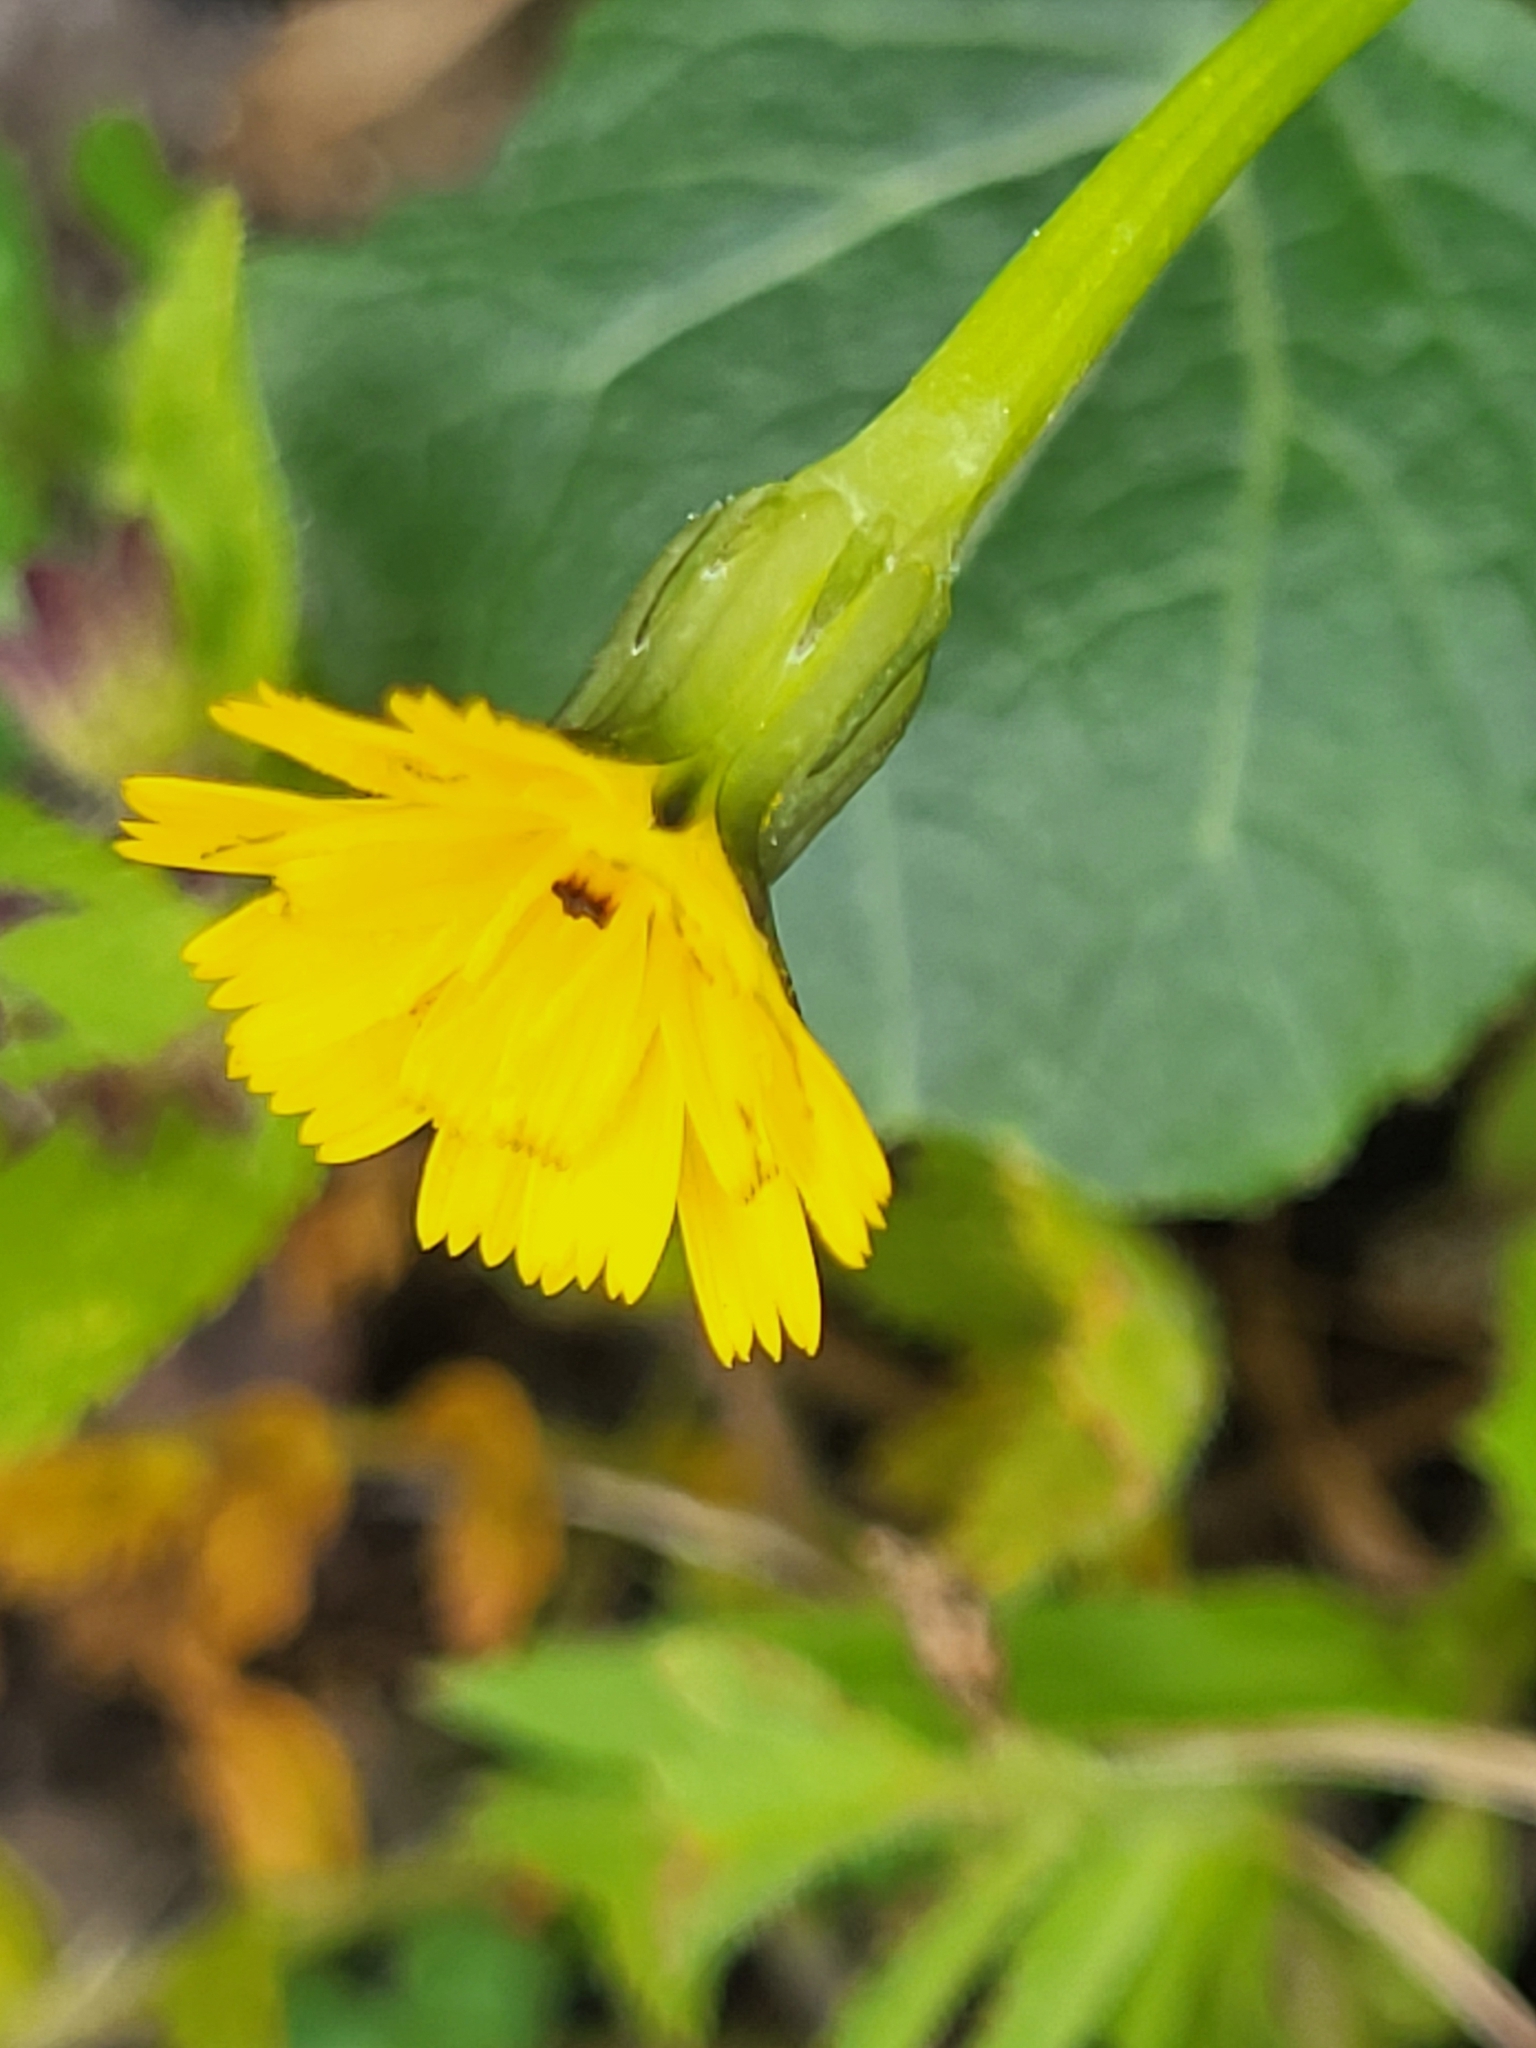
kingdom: Plantae
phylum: Tracheophyta
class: Magnoliopsida
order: Asterales
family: Asteraceae
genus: Hedypnois
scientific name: Hedypnois rhagadioloides
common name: Cretan weed
